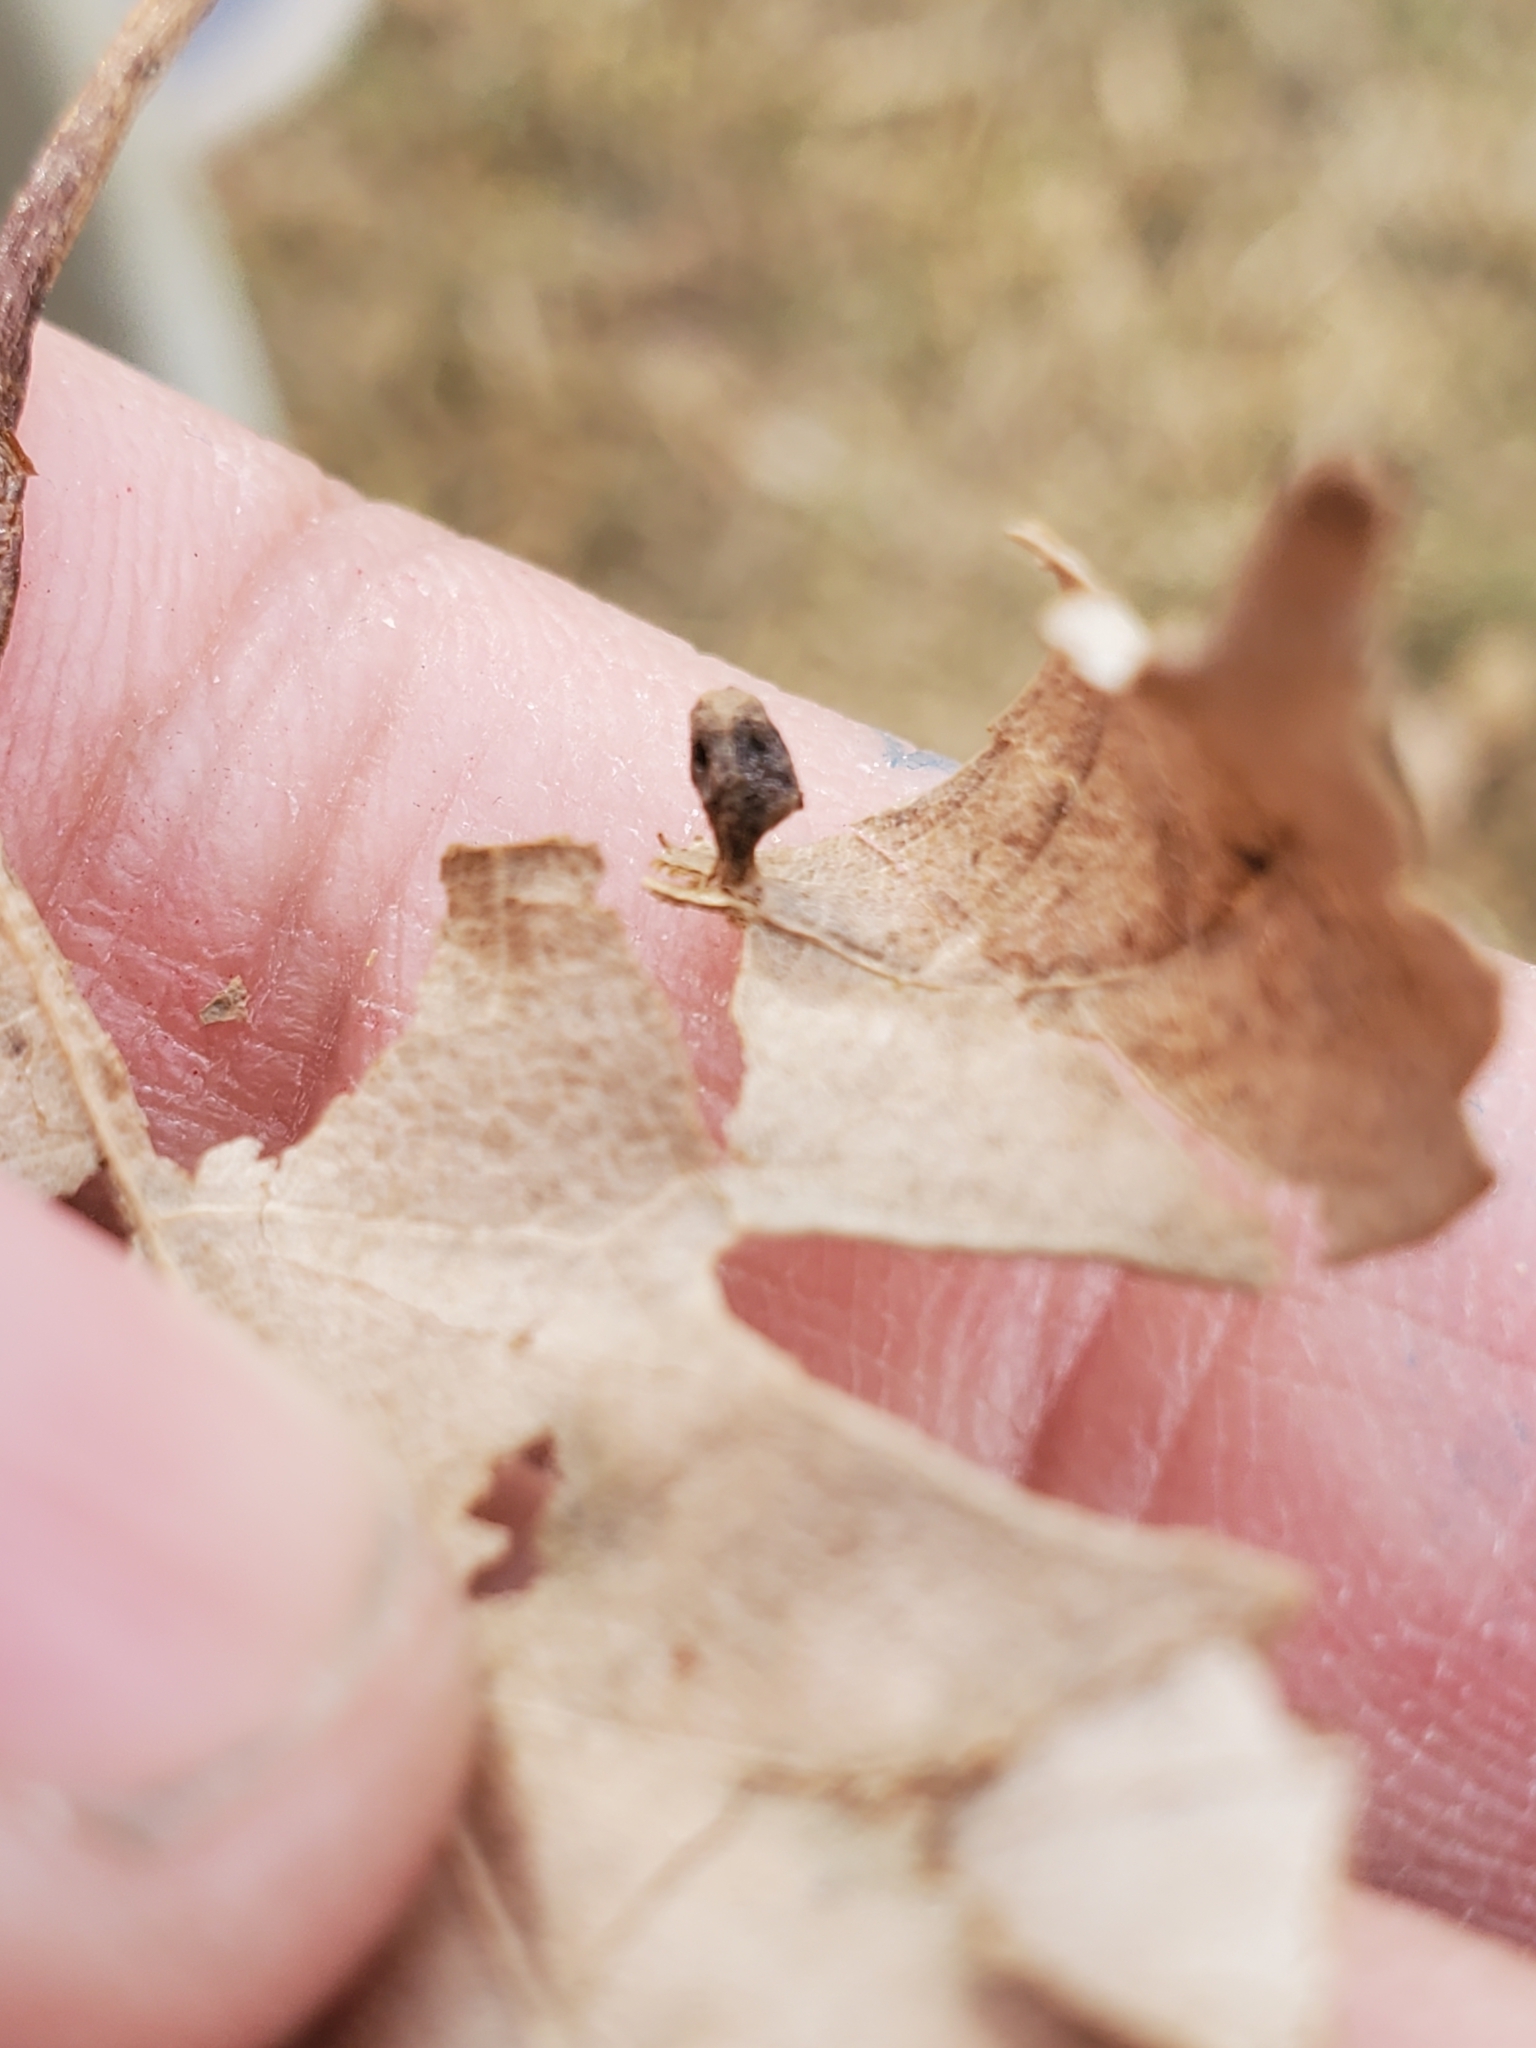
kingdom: Animalia
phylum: Arthropoda
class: Arachnida
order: Trombidiformes
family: Eriophyidae
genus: Vasates
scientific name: Vasates quadripedes
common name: Maple bladder gall mite
